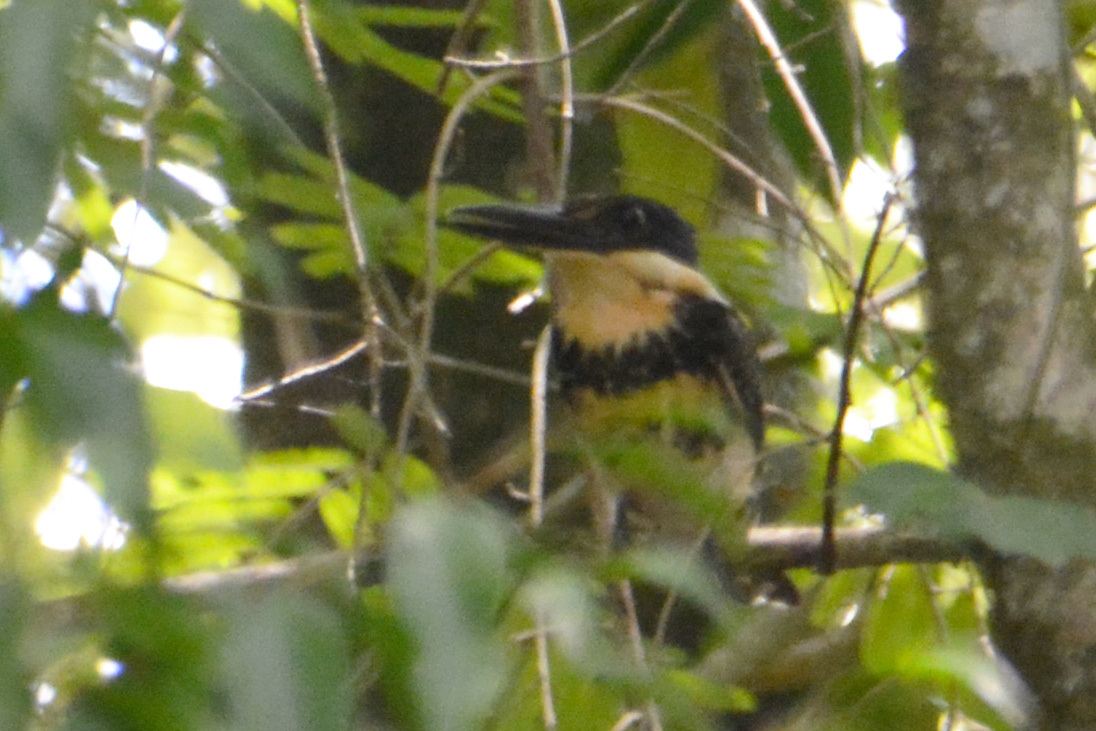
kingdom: Animalia
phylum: Chordata
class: Aves
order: Coraciiformes
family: Alcedinidae
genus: Chloroceryle
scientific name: Chloroceryle americana
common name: Green kingfisher
